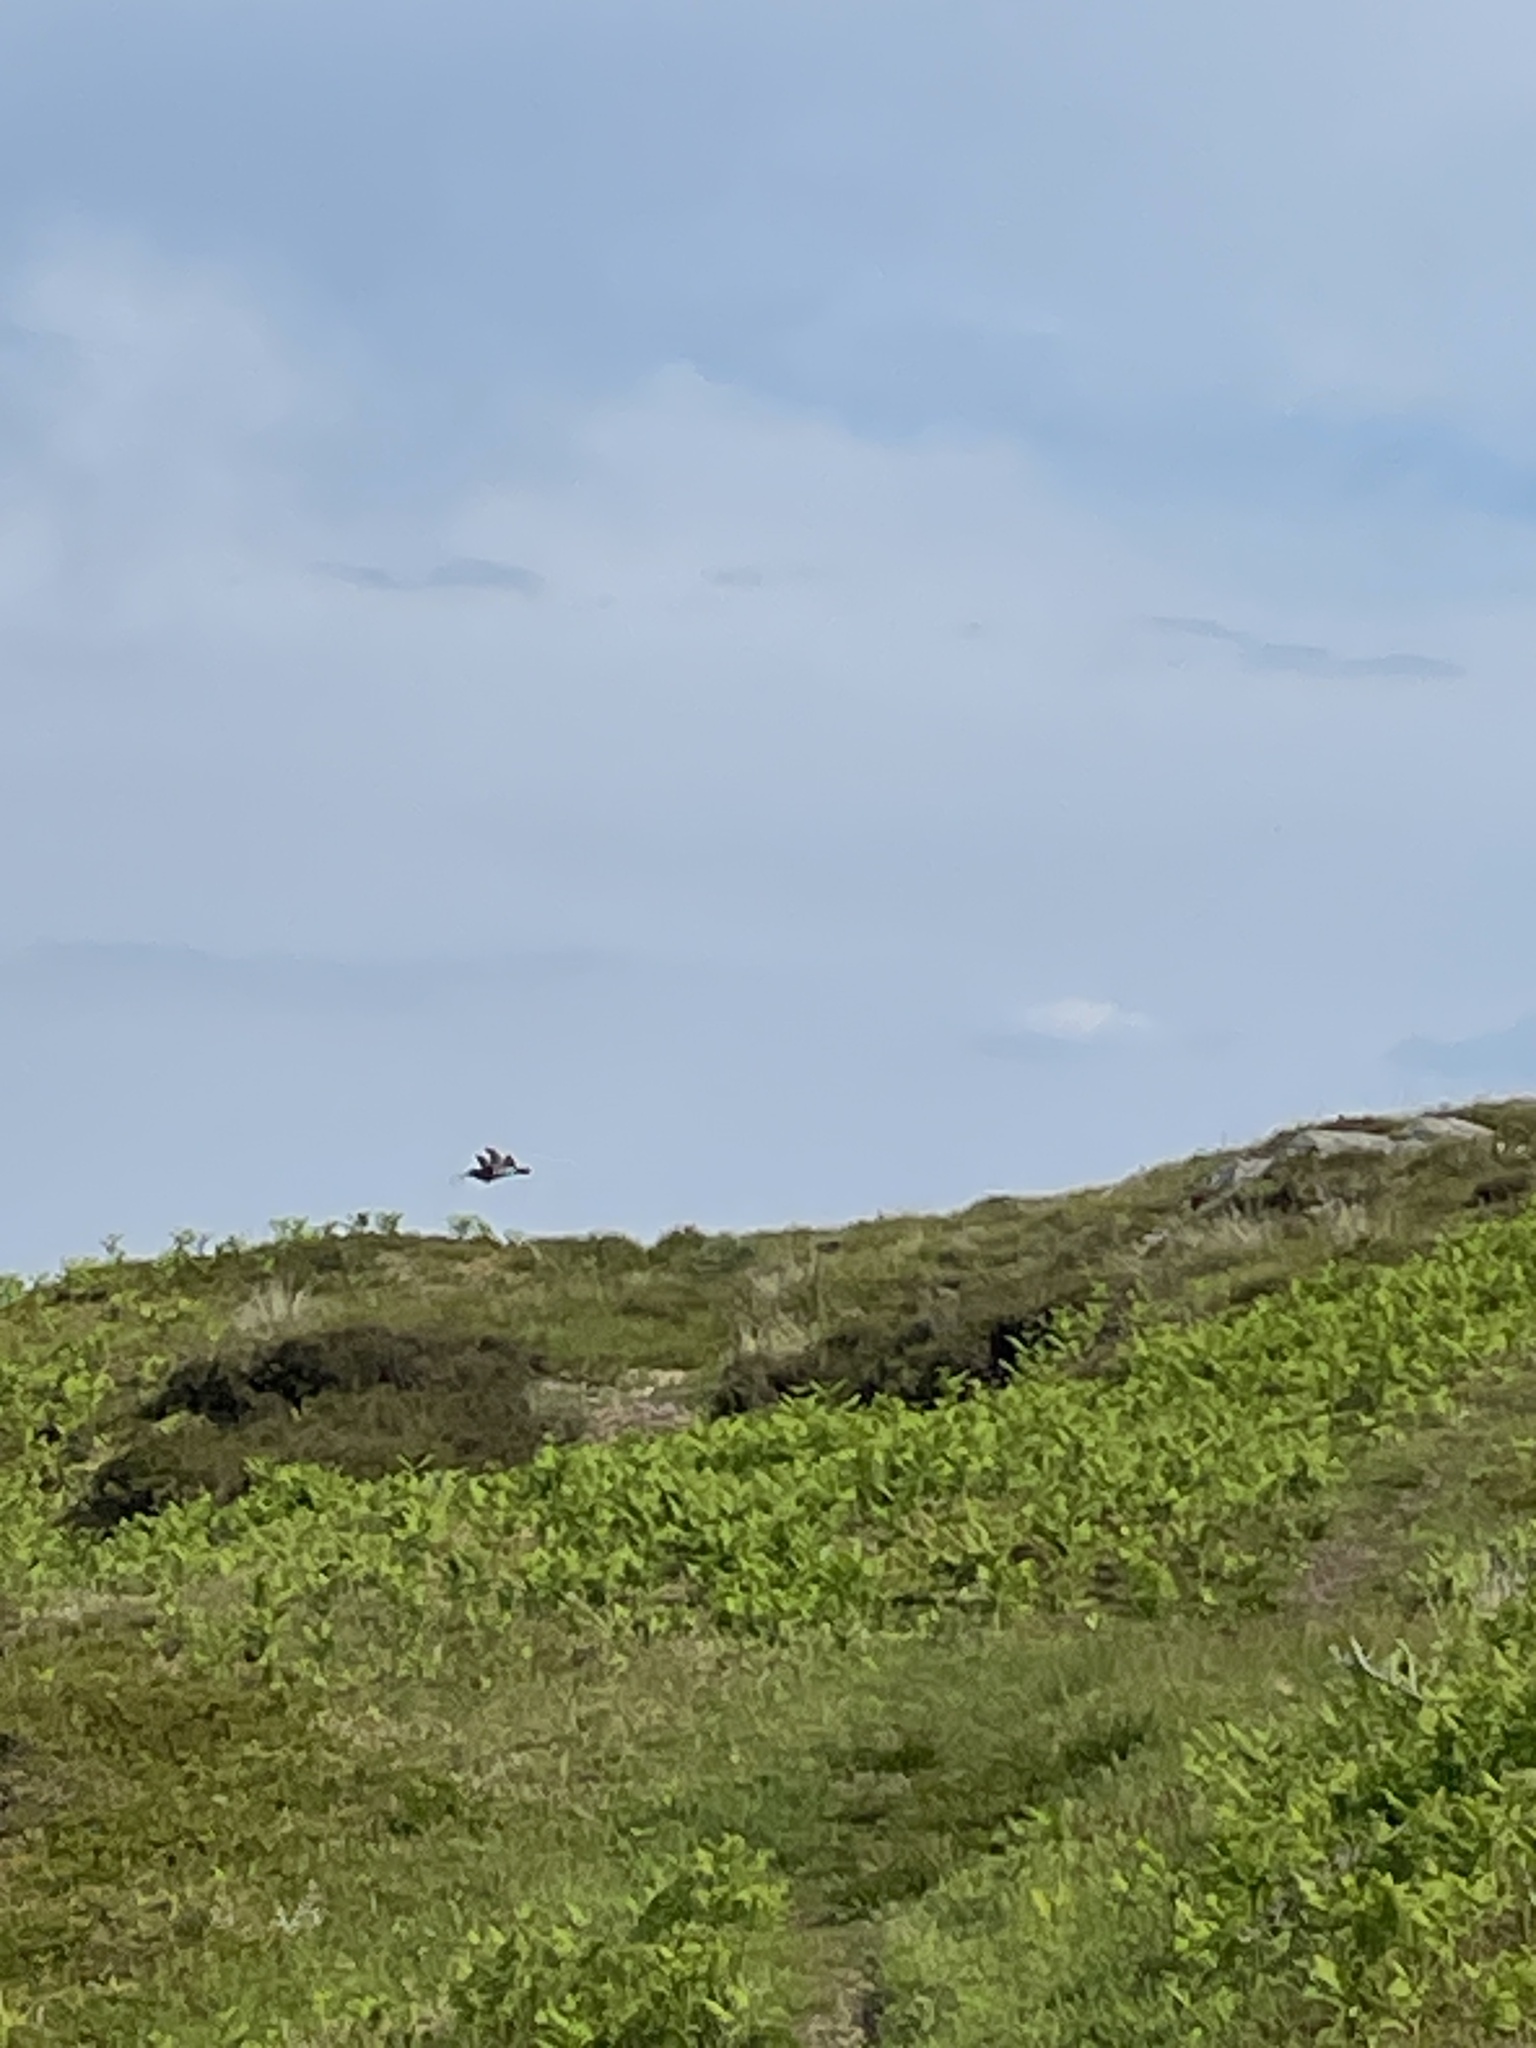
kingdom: Animalia
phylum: Chordata
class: Aves
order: Charadriiformes
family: Scolopacidae
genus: Numenius
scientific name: Numenius arquata
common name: Eurasian curlew
